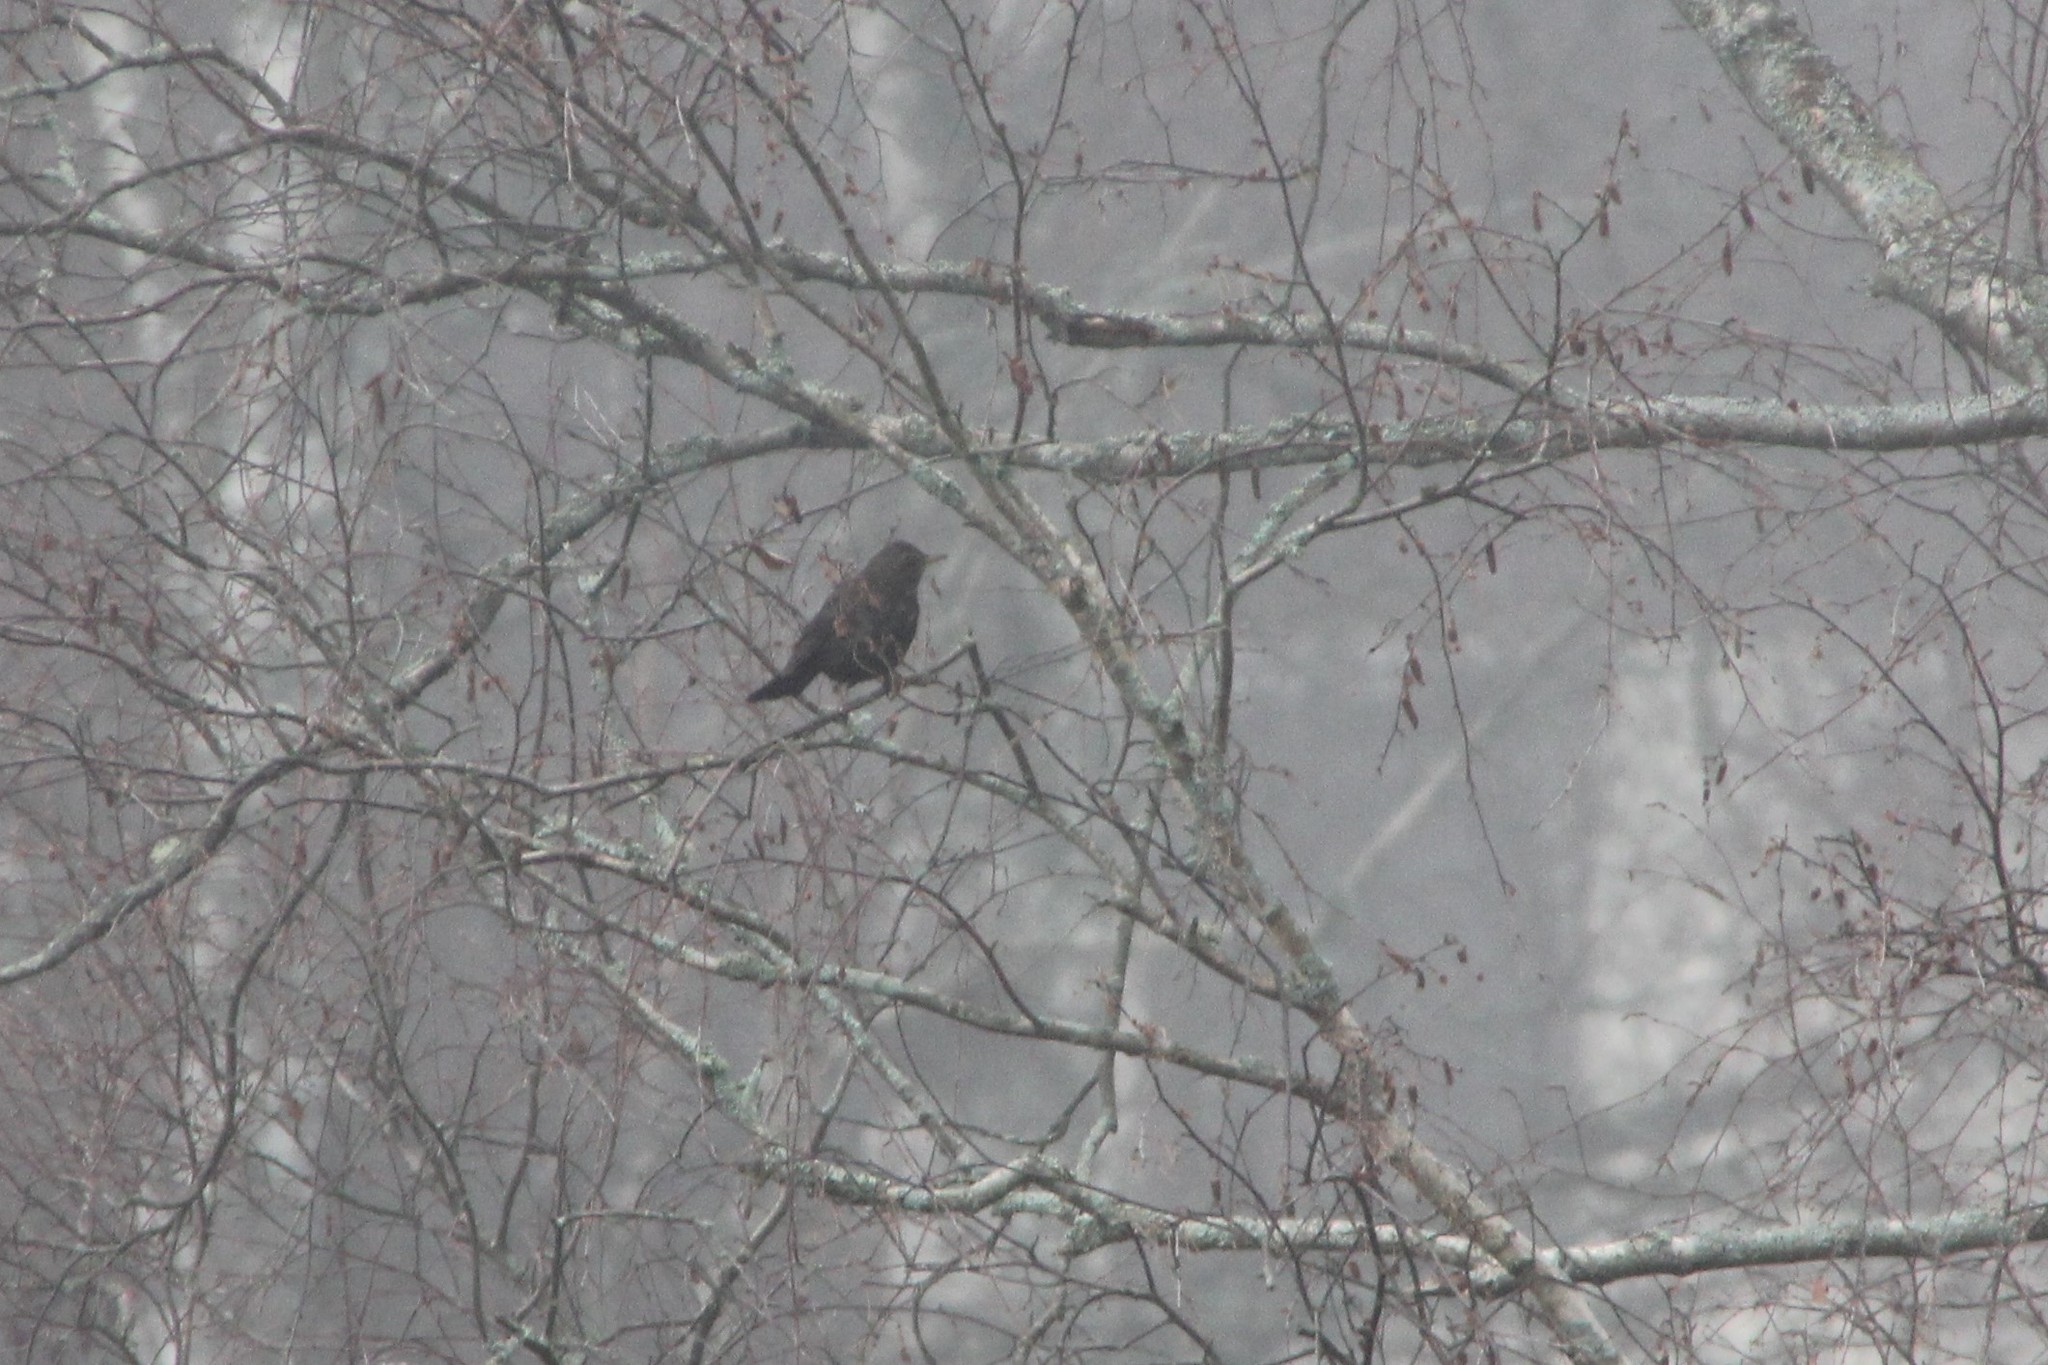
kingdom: Animalia
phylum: Chordata
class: Aves
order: Passeriformes
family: Turdidae
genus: Turdus
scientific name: Turdus merula
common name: Common blackbird
